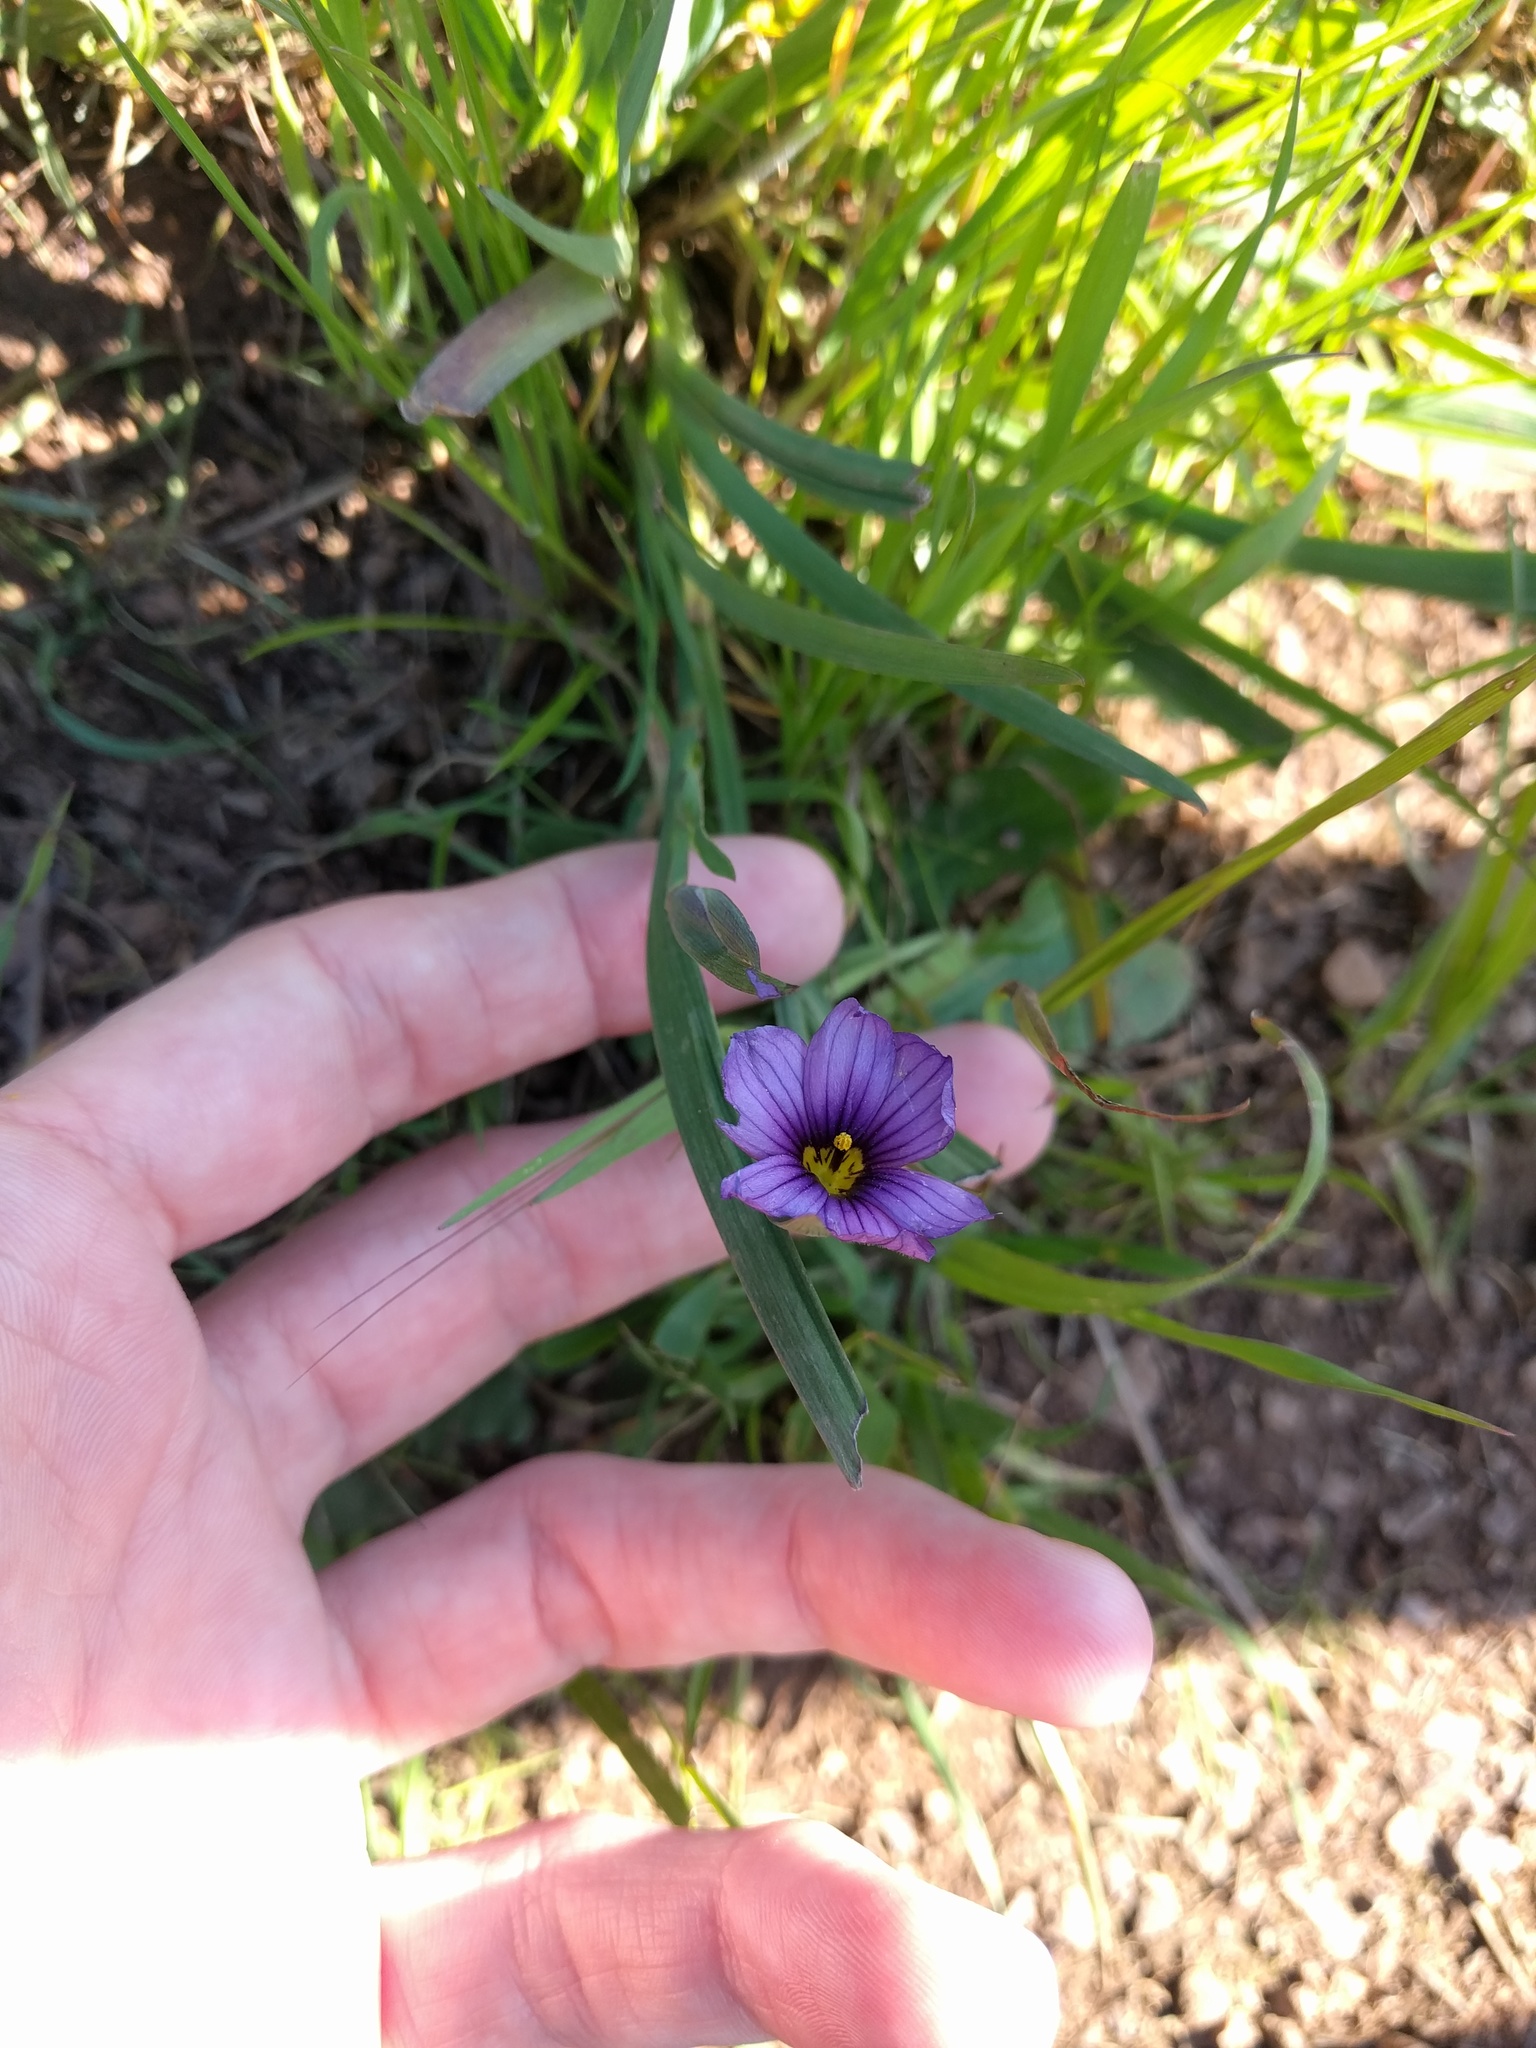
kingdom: Plantae
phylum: Tracheophyta
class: Liliopsida
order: Asparagales
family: Iridaceae
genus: Sisyrinchium
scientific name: Sisyrinchium bellum
